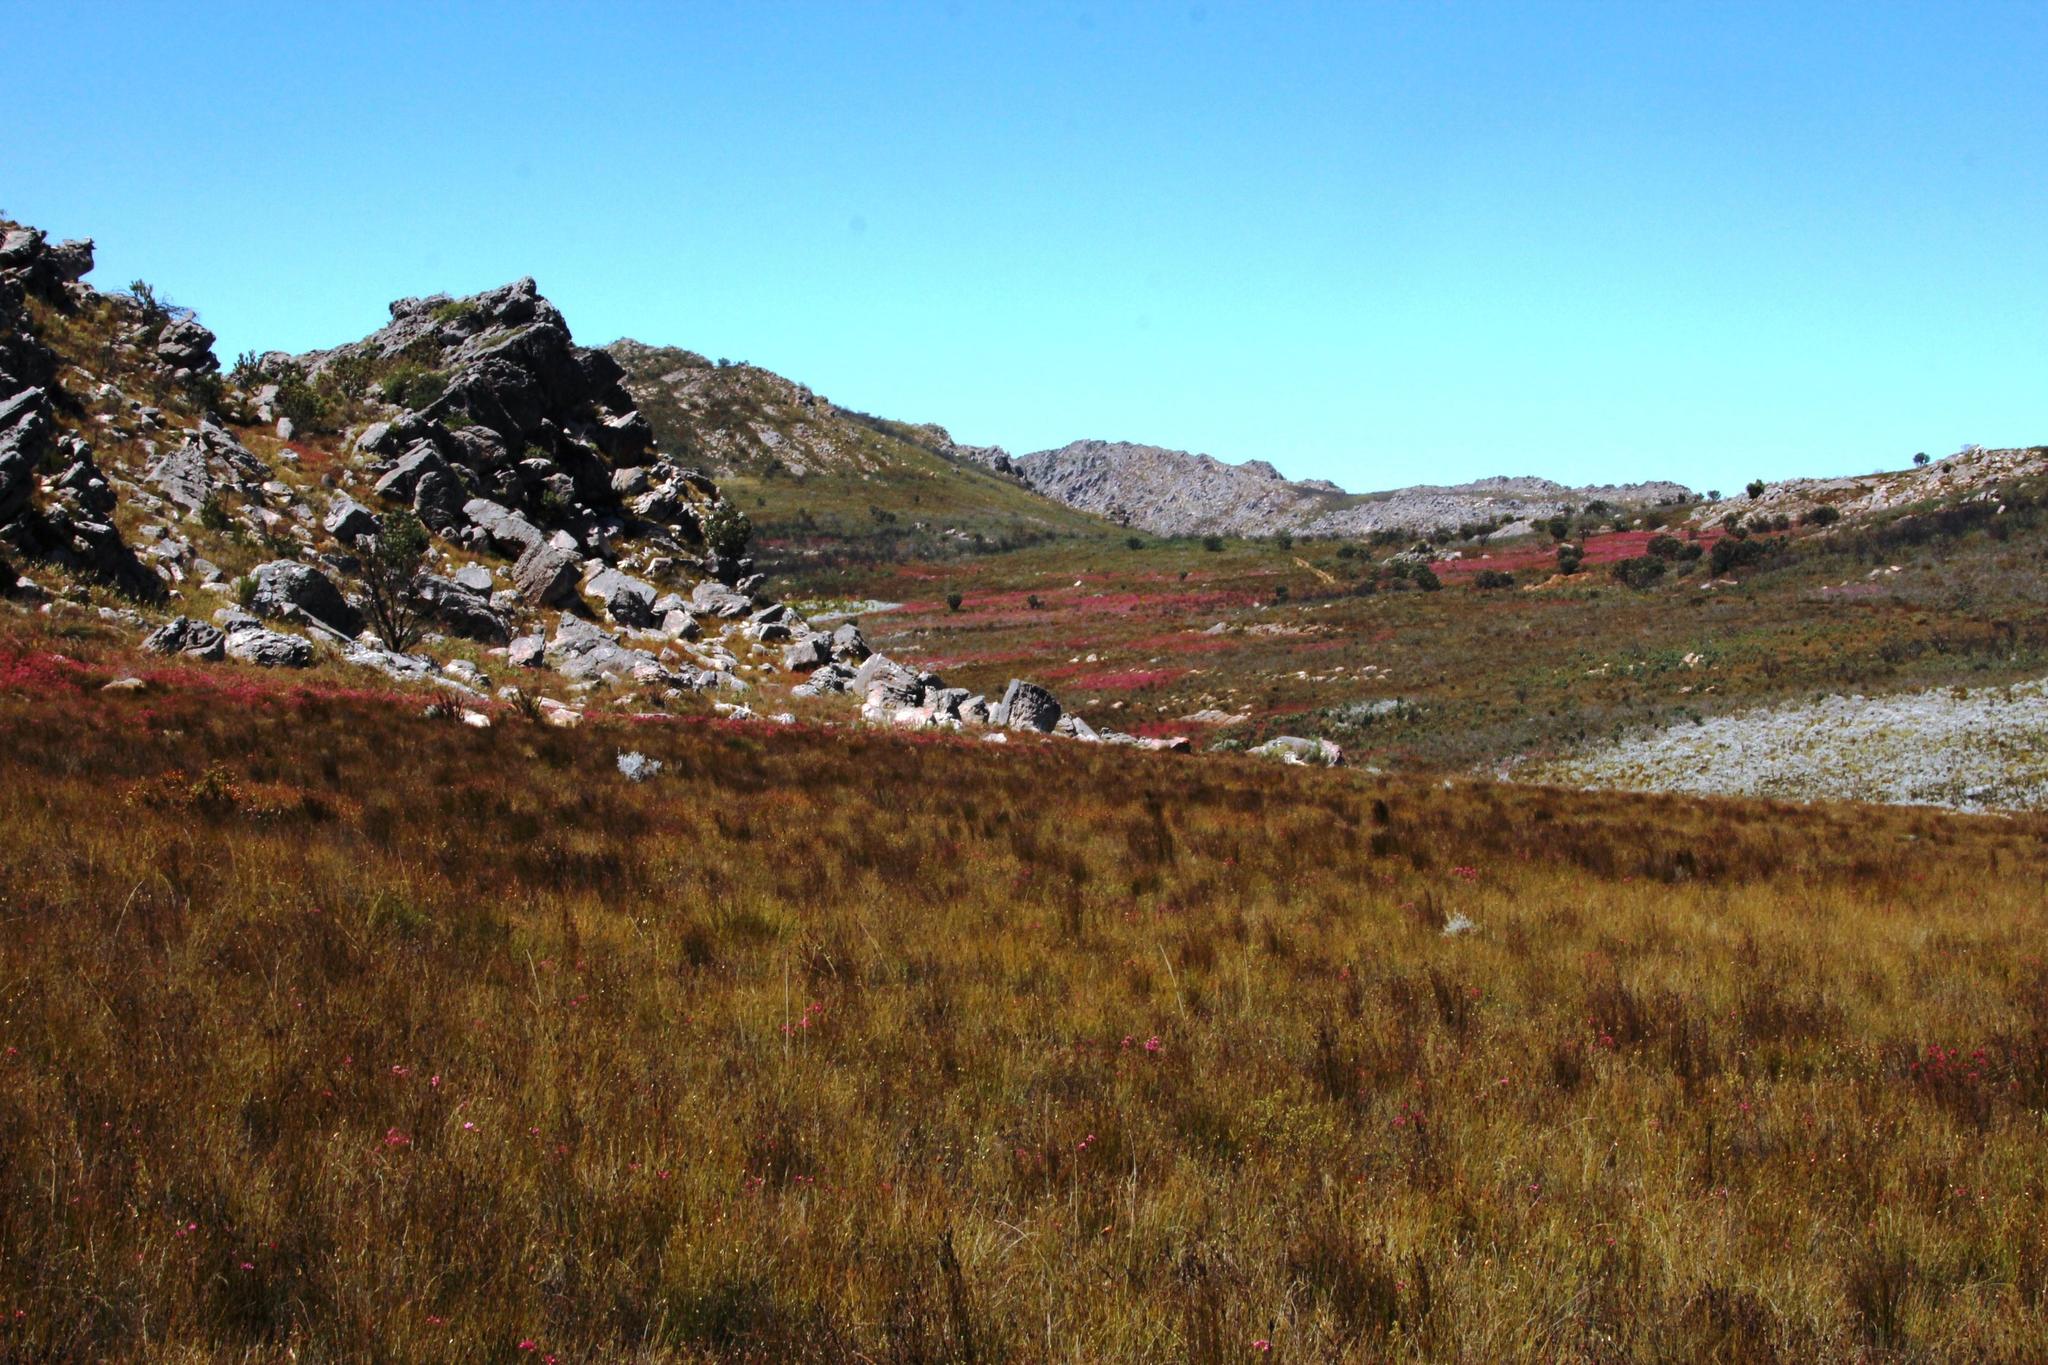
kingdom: Plantae
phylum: Tracheophyta
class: Magnoliopsida
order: Ericales
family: Ericaceae
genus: Erica
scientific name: Erica inflata
